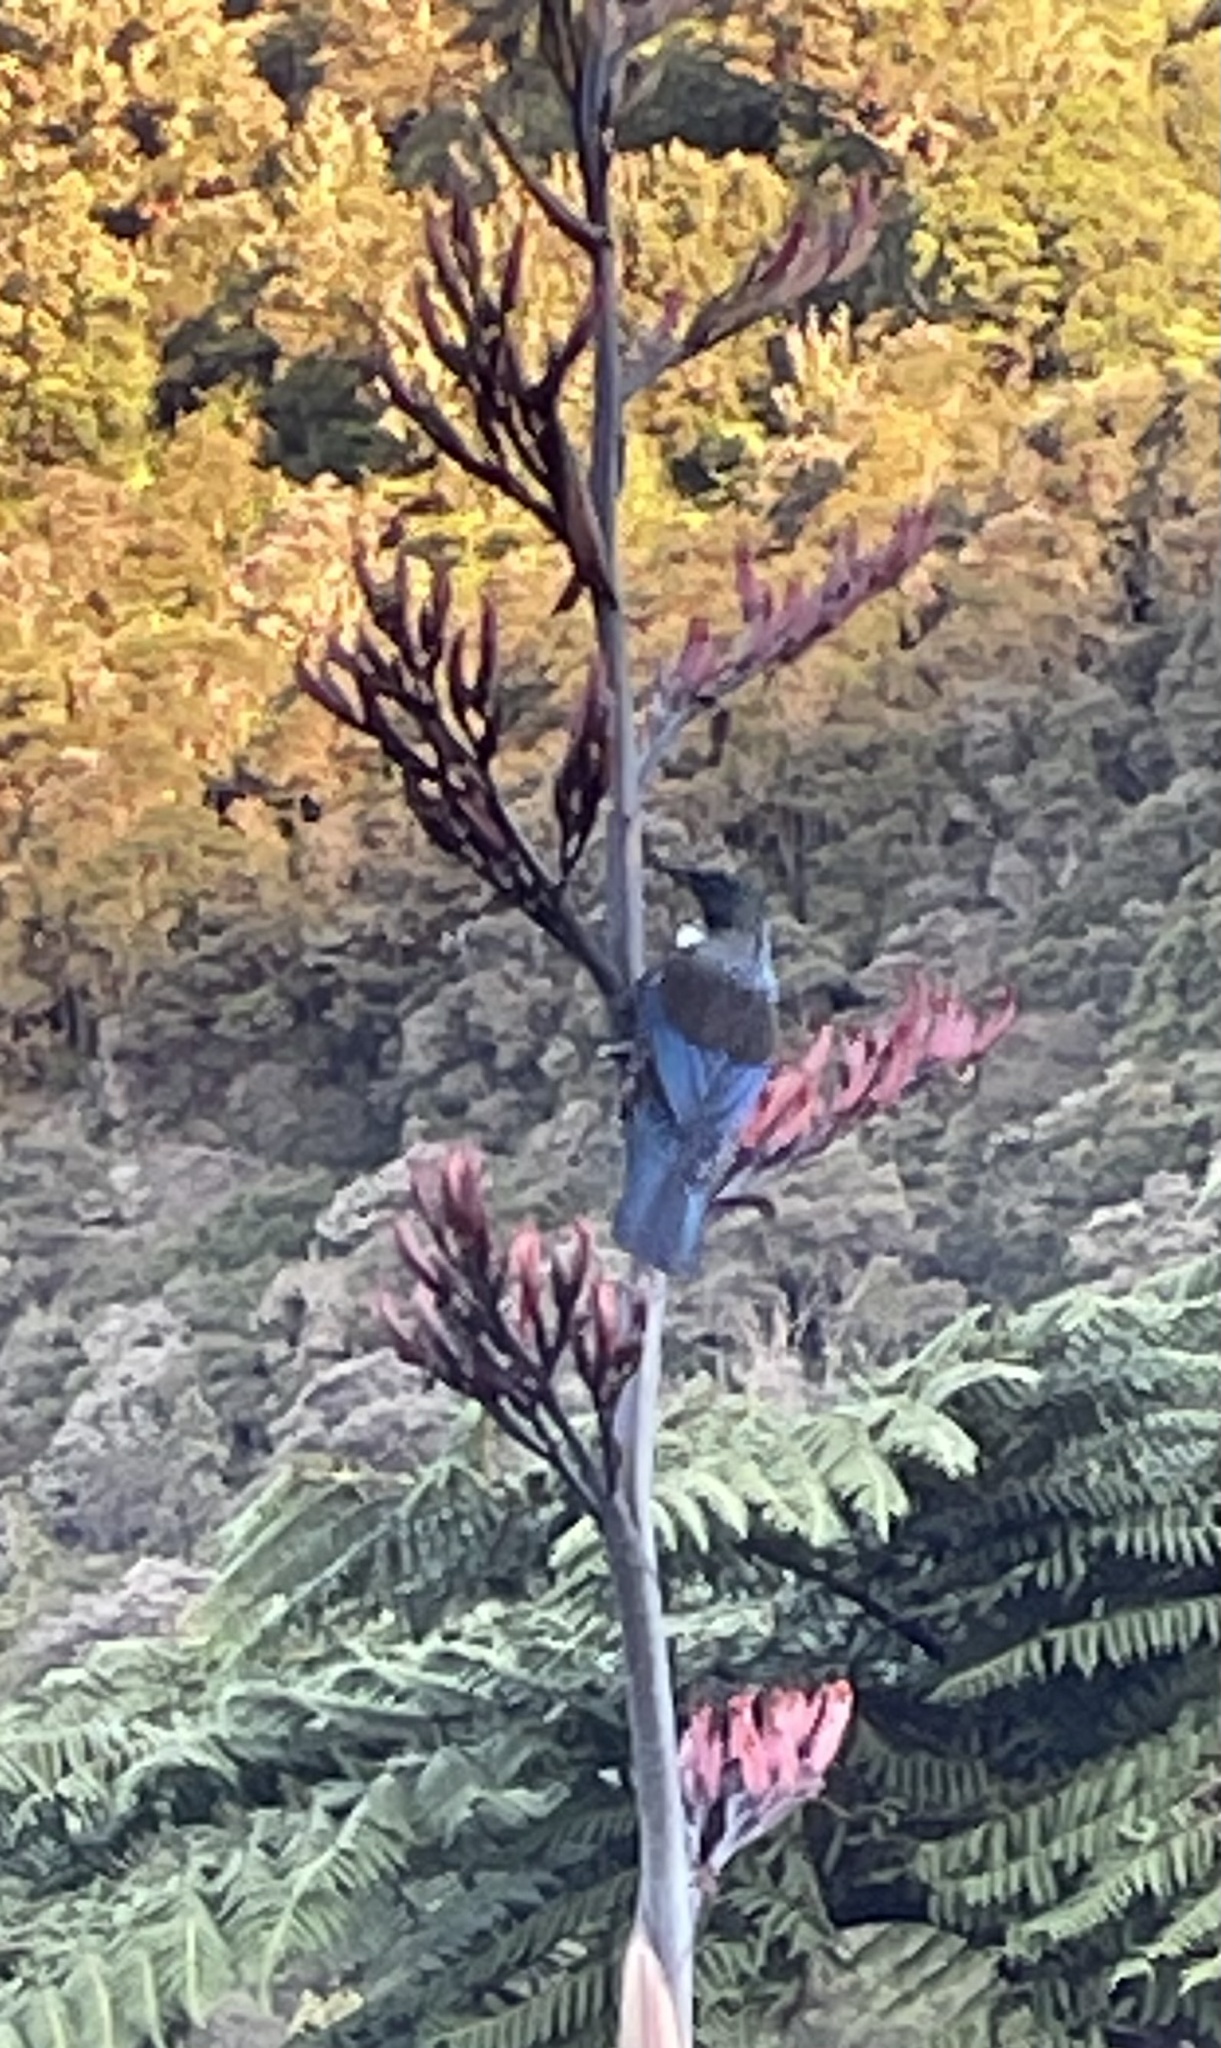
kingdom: Animalia
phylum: Chordata
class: Aves
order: Passeriformes
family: Meliphagidae
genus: Prosthemadera
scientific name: Prosthemadera novaeseelandiae
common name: Tui
